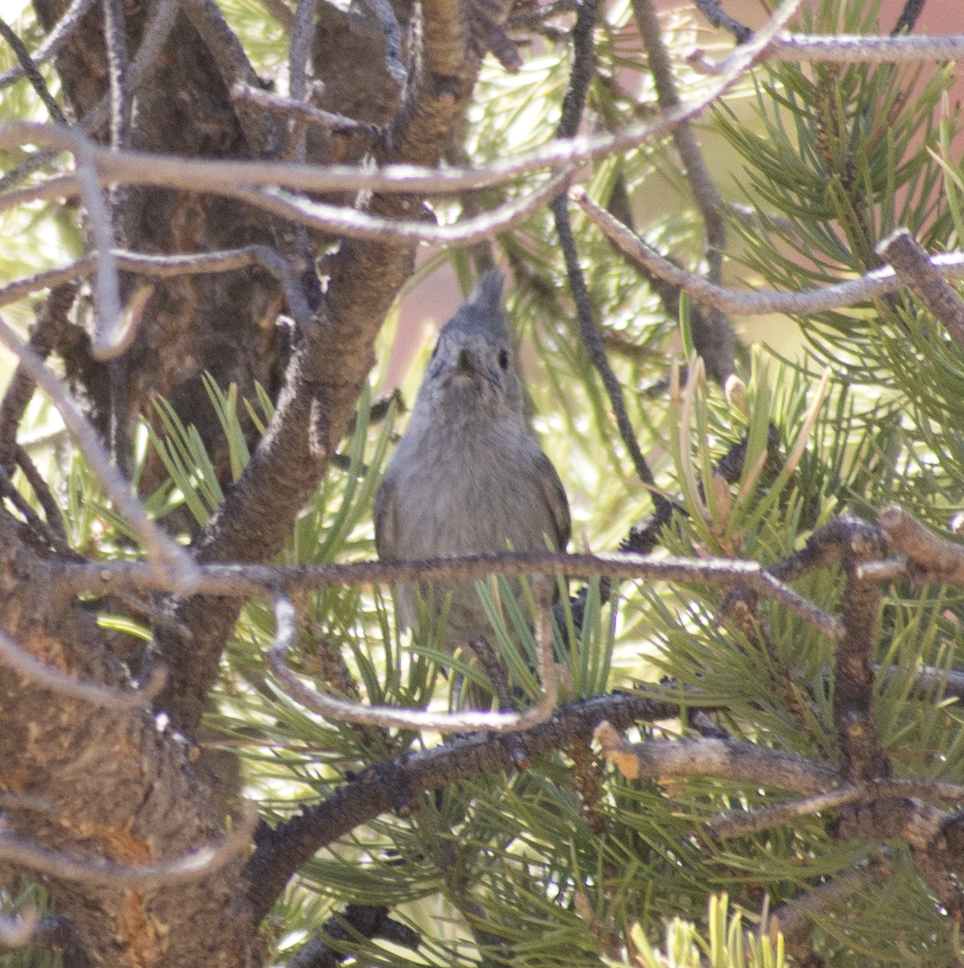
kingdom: Animalia
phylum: Chordata
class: Aves
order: Passeriformes
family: Paridae
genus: Baeolophus
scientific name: Baeolophus ridgwayi
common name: Juniper titmouse
